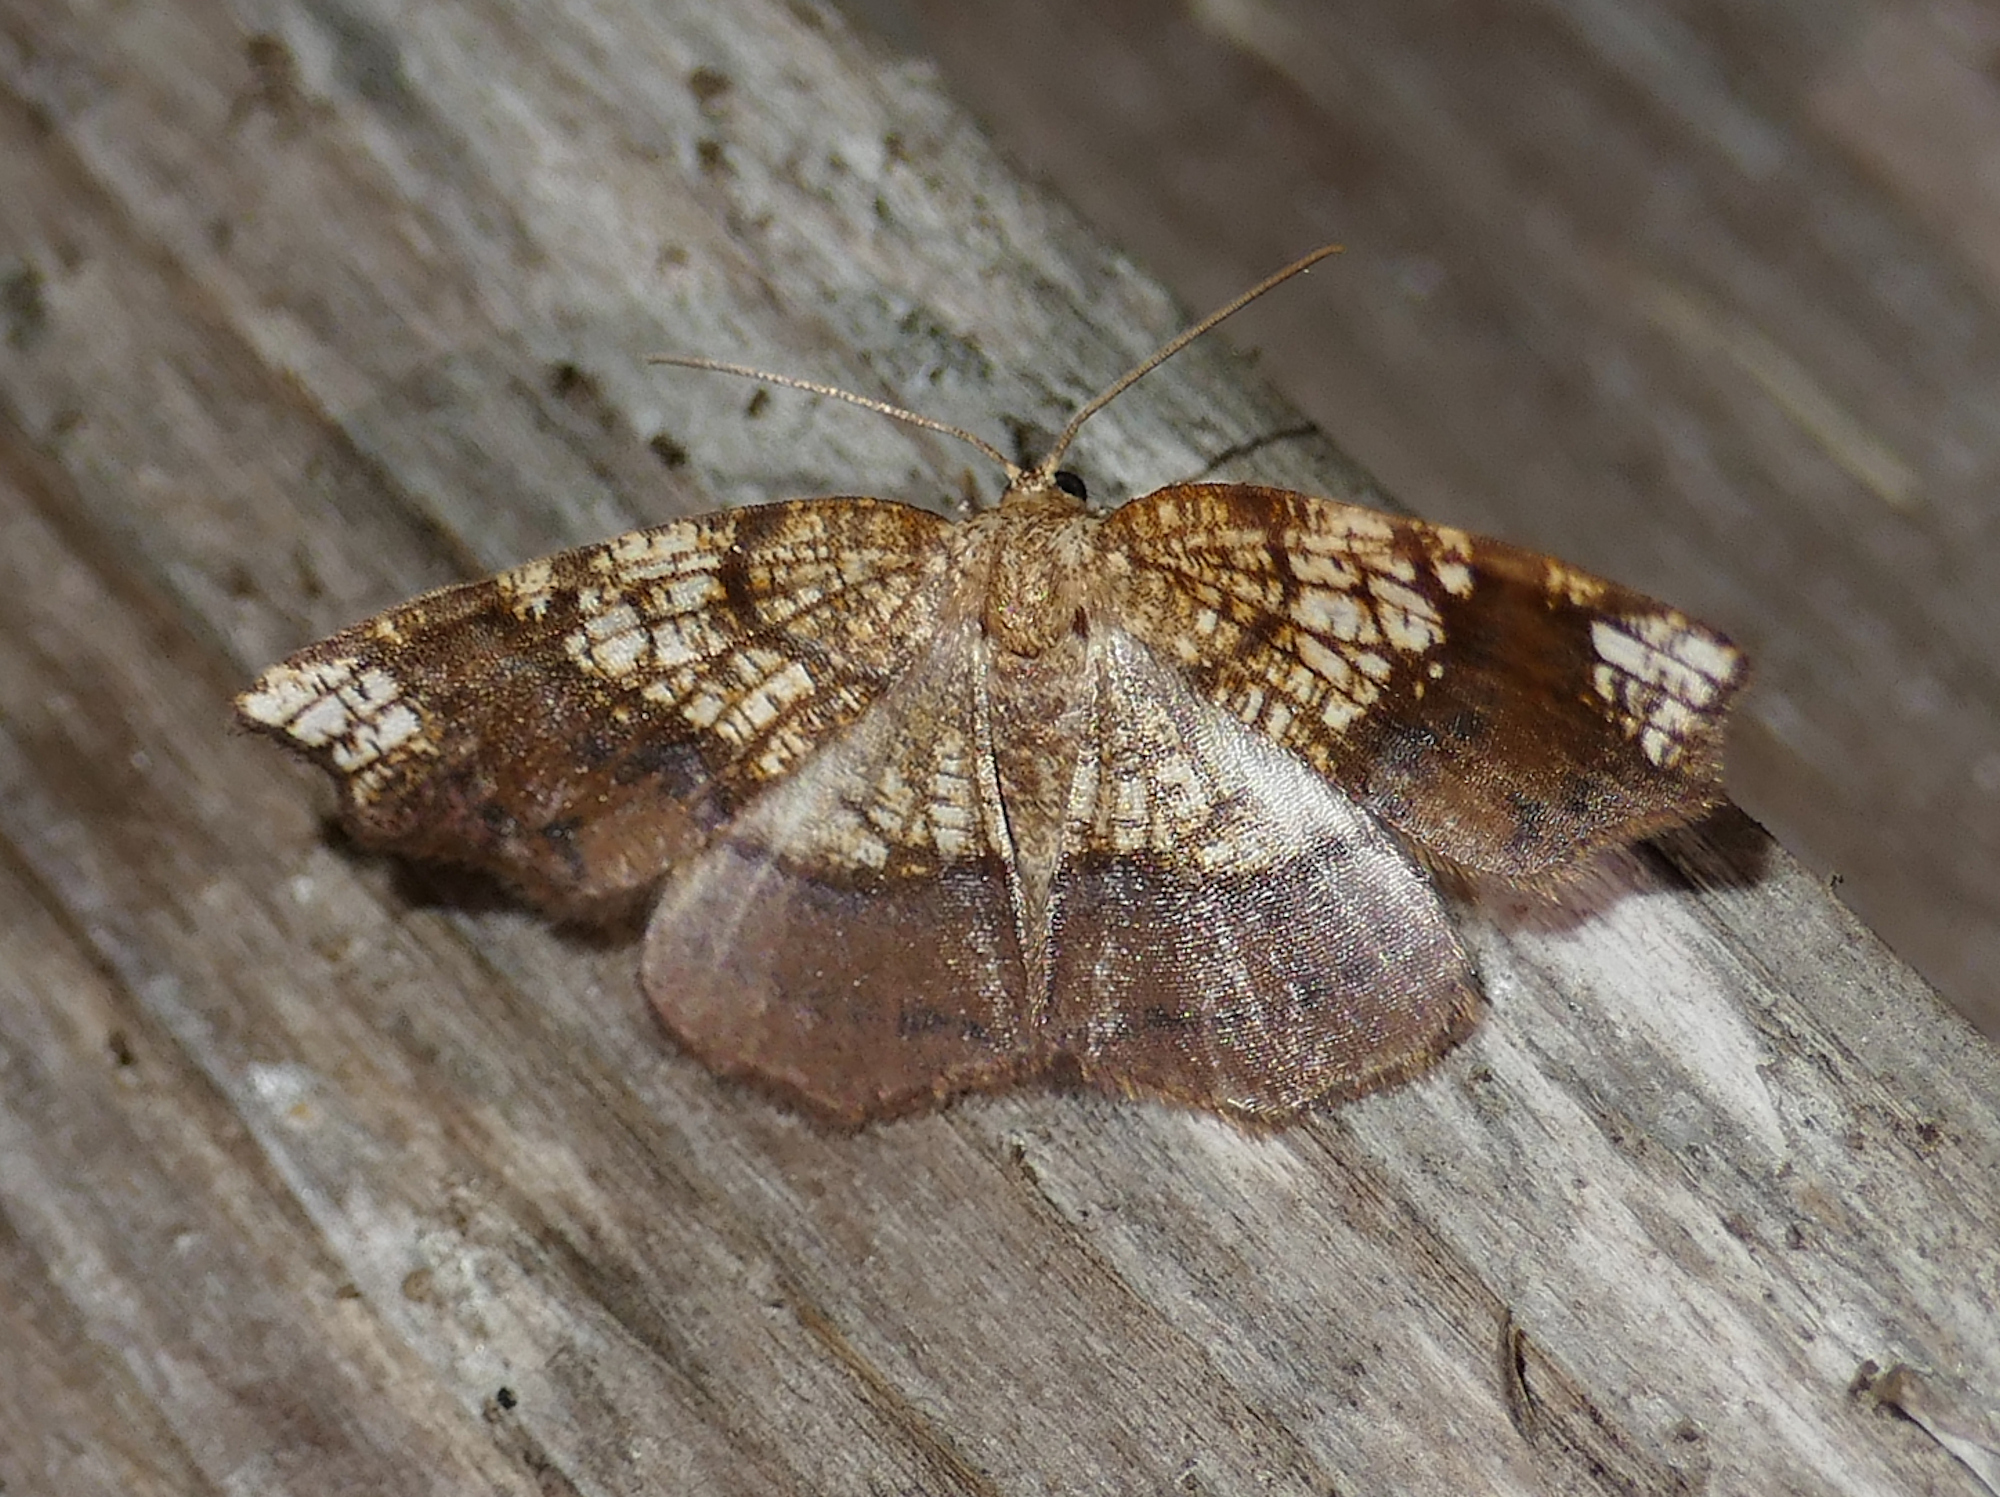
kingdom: Animalia
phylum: Arthropoda
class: Insecta
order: Lepidoptera
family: Geometridae
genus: Nematocampa
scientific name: Nematocampa resistaria
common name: Horned spanworm moth
